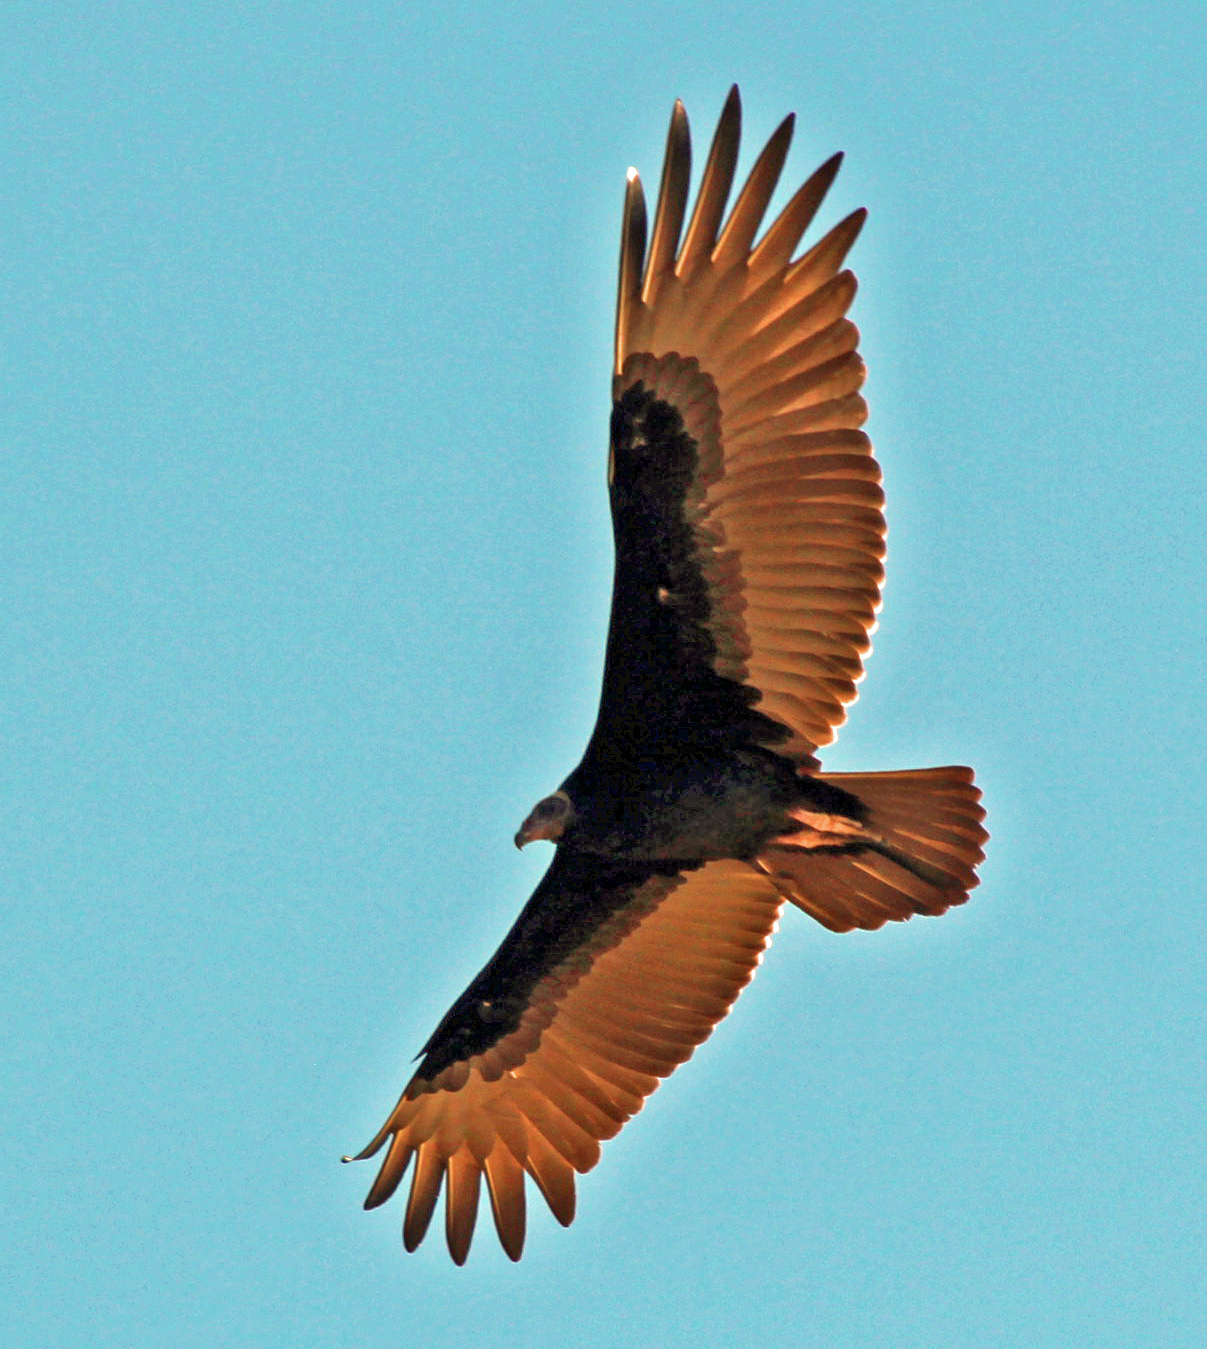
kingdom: Animalia
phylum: Chordata
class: Aves
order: Accipitriformes
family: Cathartidae
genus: Cathartes
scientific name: Cathartes aura
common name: Turkey vulture
